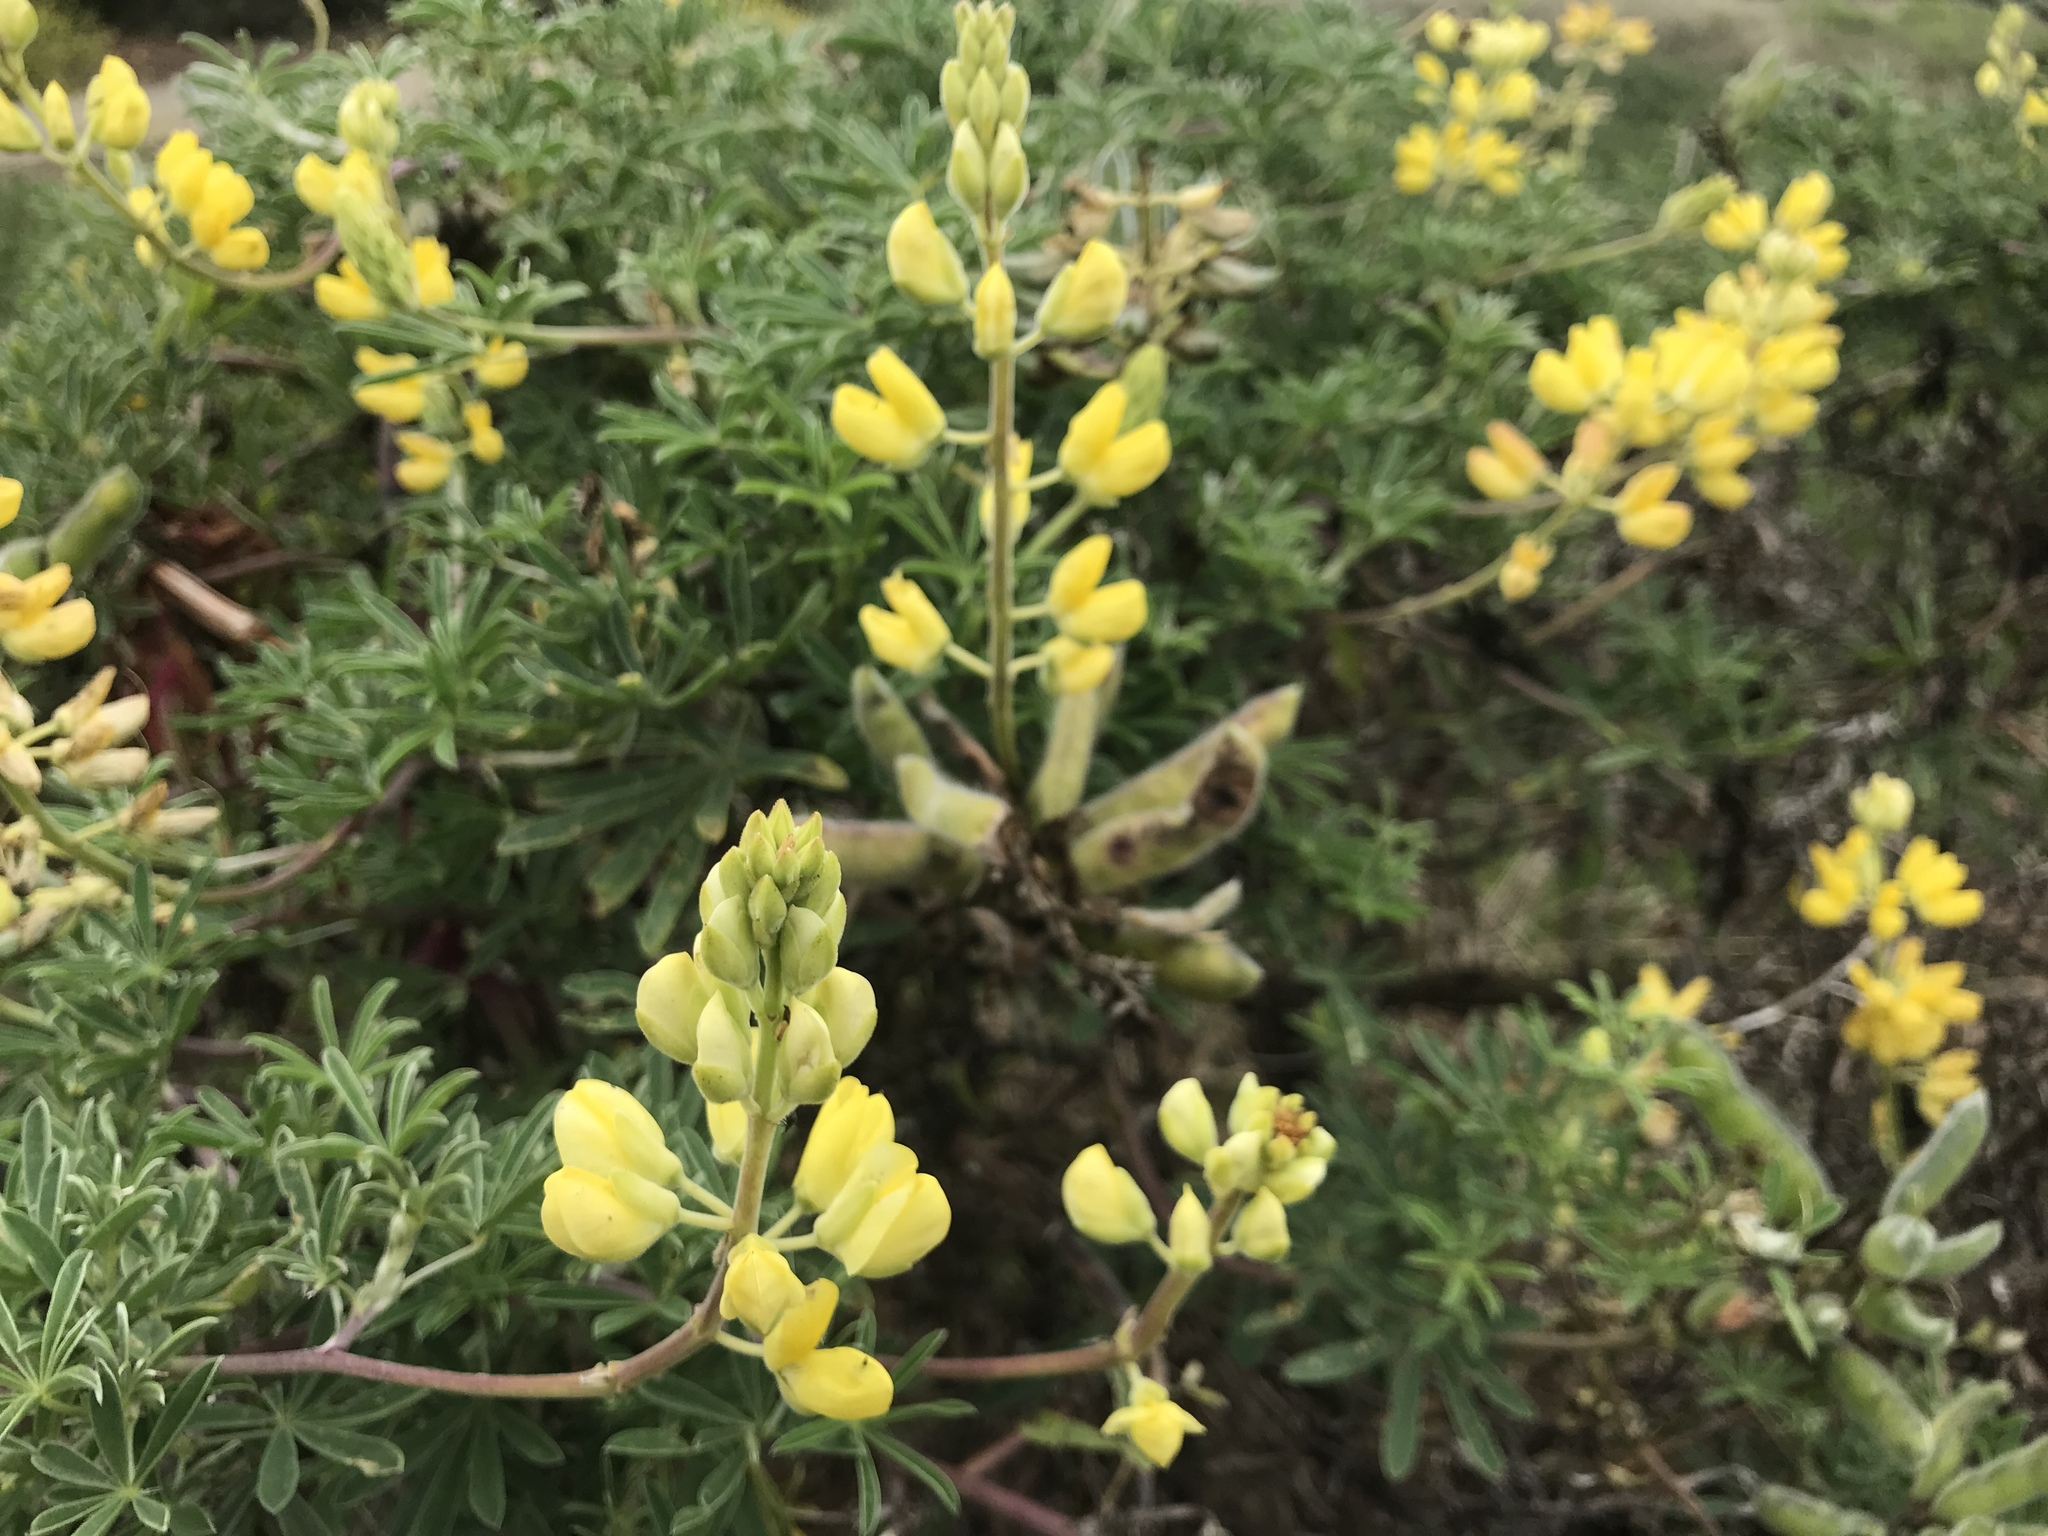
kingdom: Plantae
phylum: Tracheophyta
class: Magnoliopsida
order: Fabales
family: Fabaceae
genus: Lupinus
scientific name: Lupinus arboreus
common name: Yellow bush lupine
